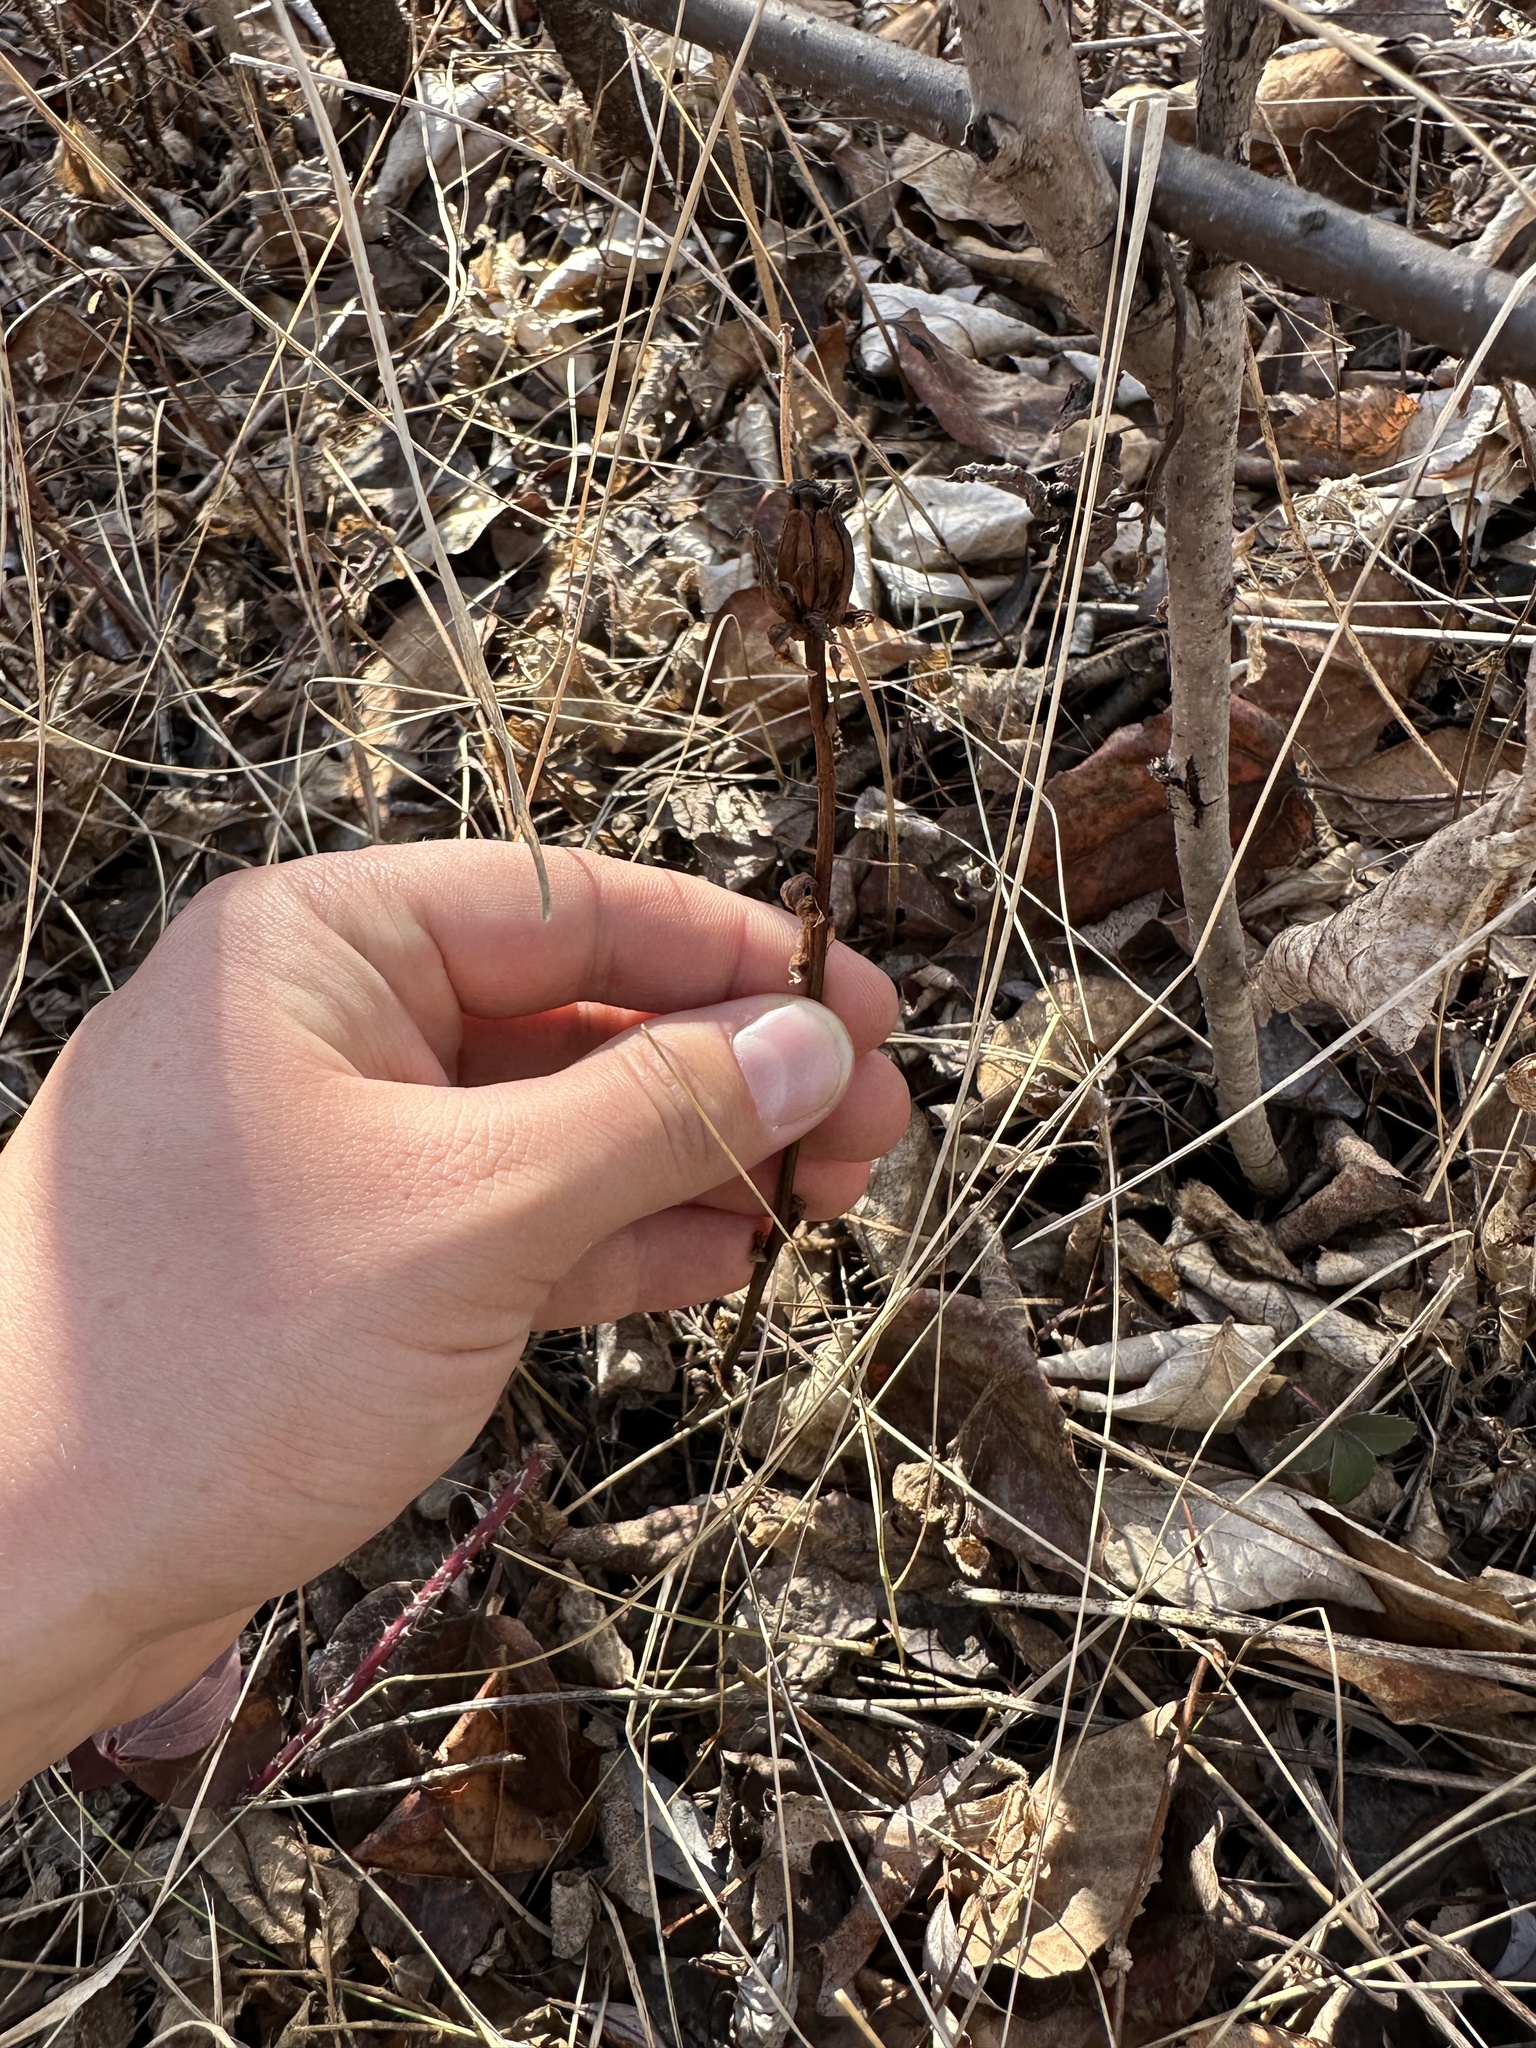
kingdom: Plantae
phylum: Tracheophyta
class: Magnoliopsida
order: Ericales
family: Ericaceae
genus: Monotropa
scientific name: Monotropa uniflora
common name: Convulsion root
